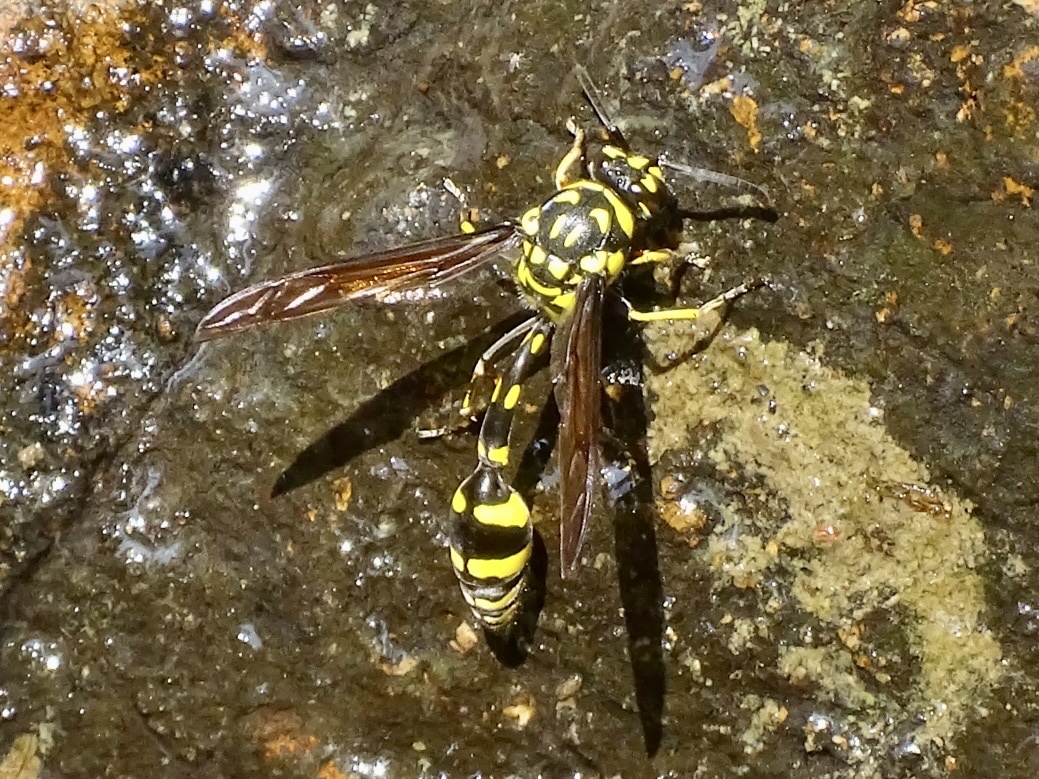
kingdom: Animalia
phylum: Arthropoda
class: Insecta
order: Hymenoptera
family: Eumenidae
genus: Phimenes
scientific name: Phimenes flavopictus
